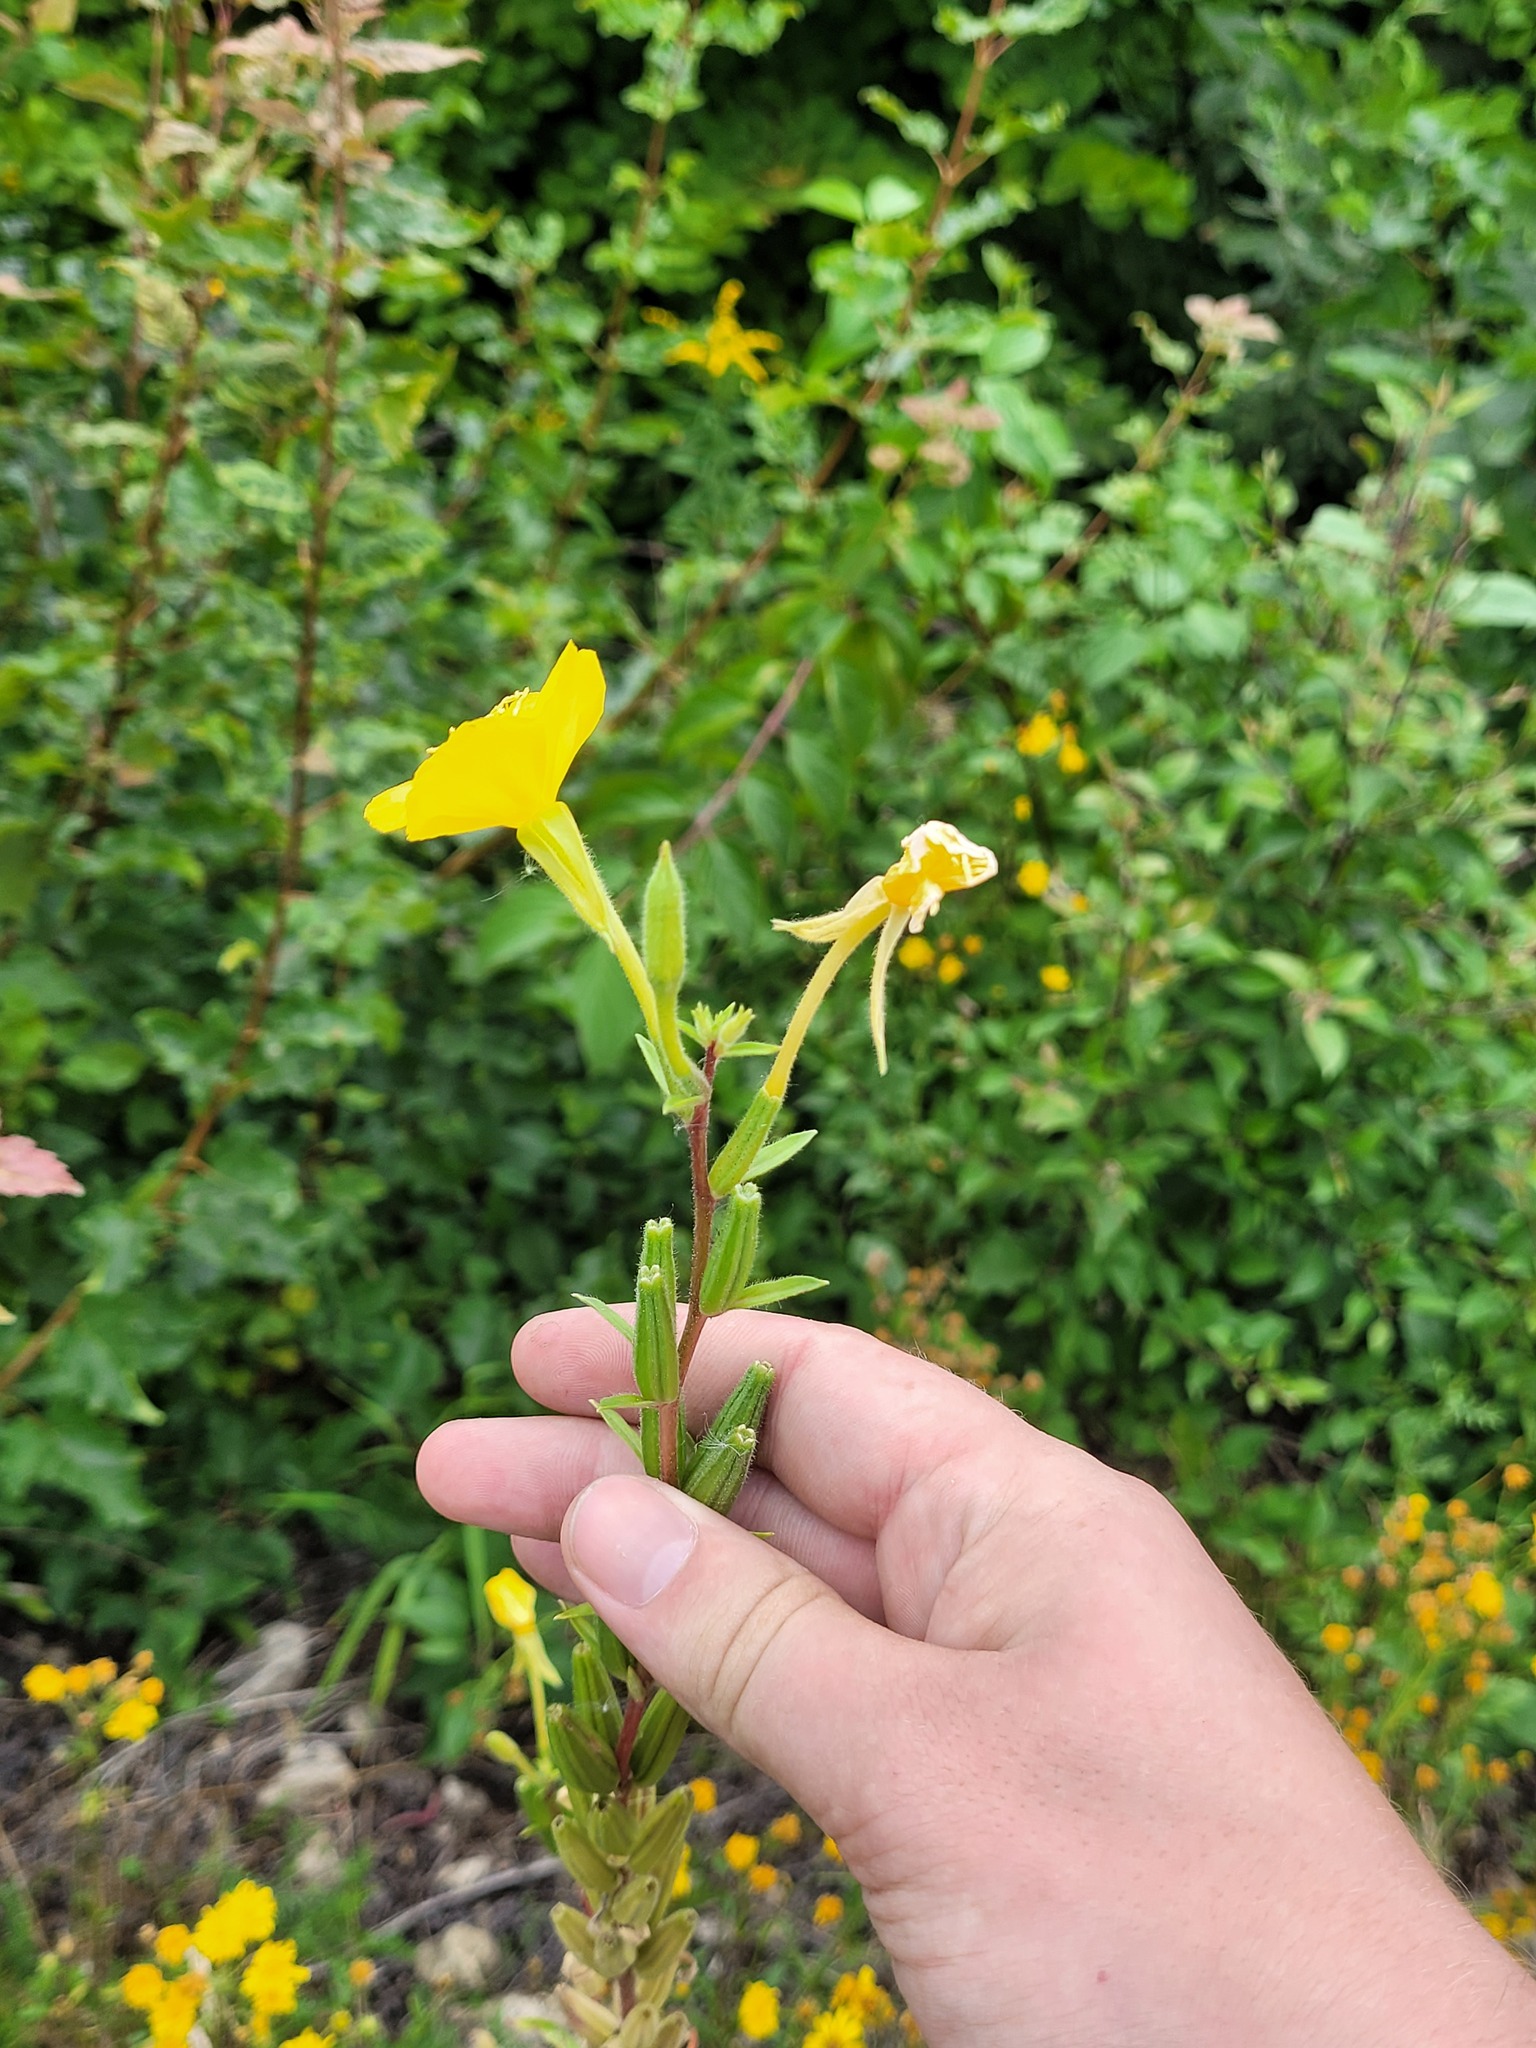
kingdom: Plantae
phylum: Tracheophyta
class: Magnoliopsida
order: Myrtales
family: Onagraceae
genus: Oenothera
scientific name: Oenothera rubricaulis
